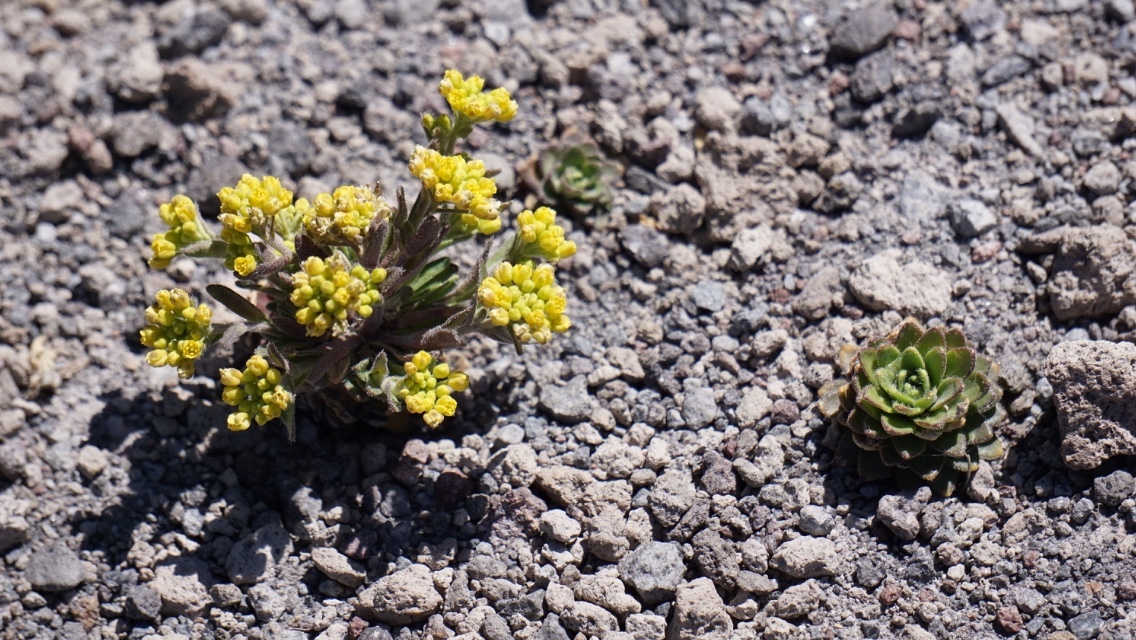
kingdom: Plantae
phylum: Tracheophyta
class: Magnoliopsida
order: Brassicales
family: Brassicaceae
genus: Draba
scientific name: Draba jorullensis
